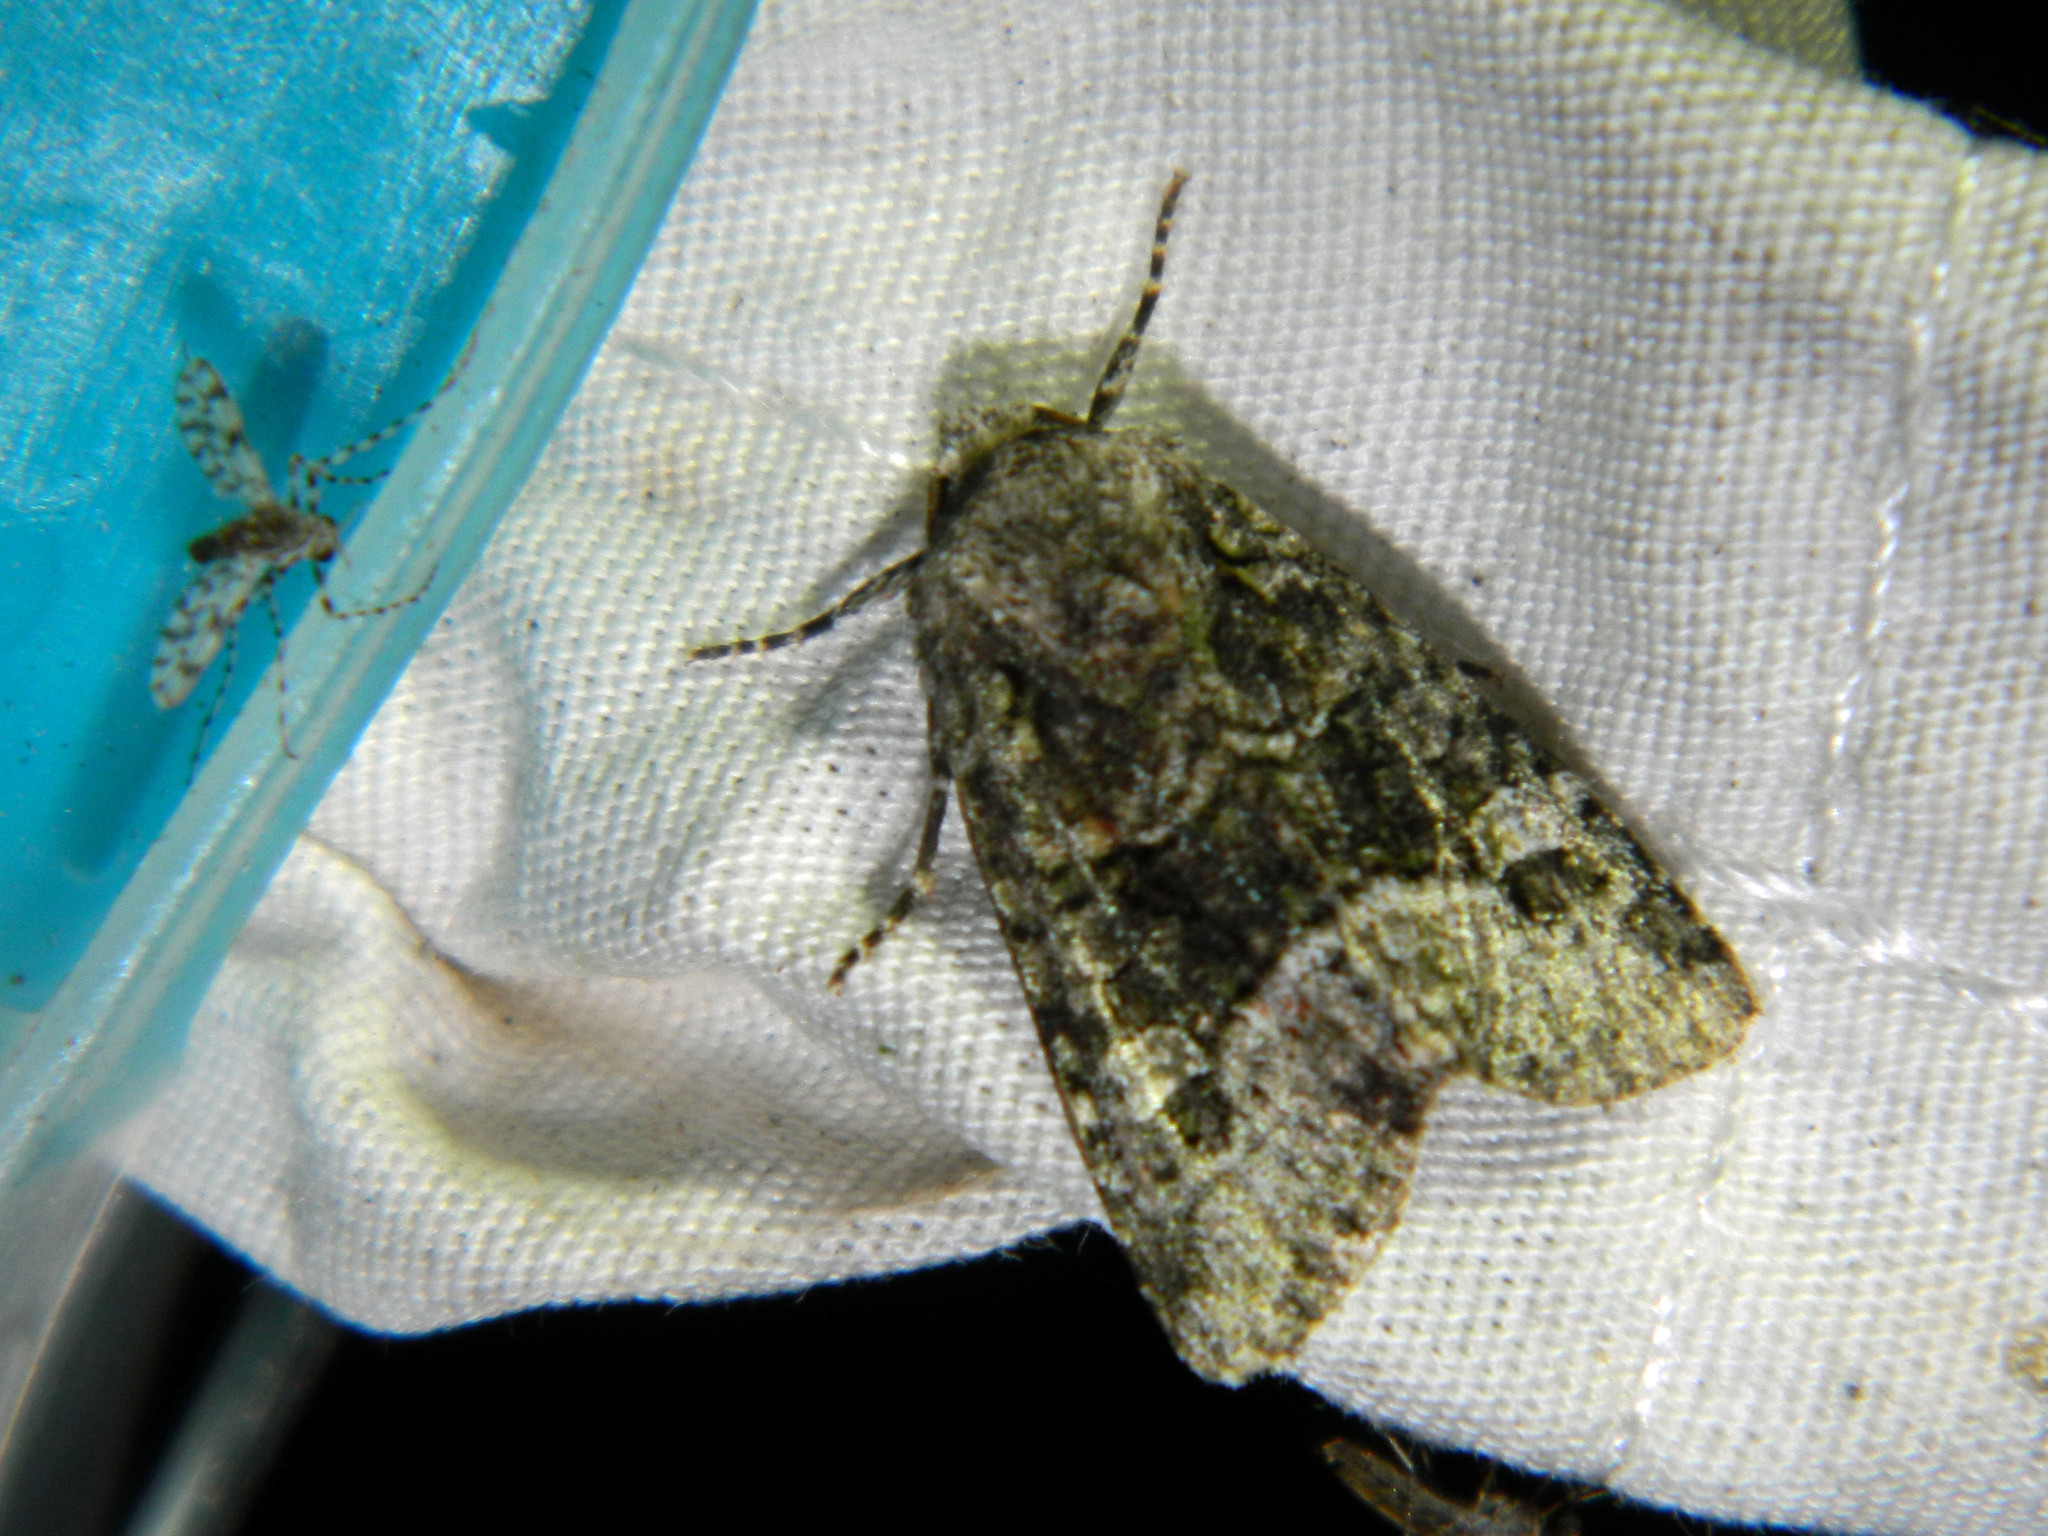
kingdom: Animalia
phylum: Arthropoda
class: Insecta
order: Lepidoptera
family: Noctuidae
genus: Lacinipolia
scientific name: Lacinipolia olivacea
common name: Olive arches moth
